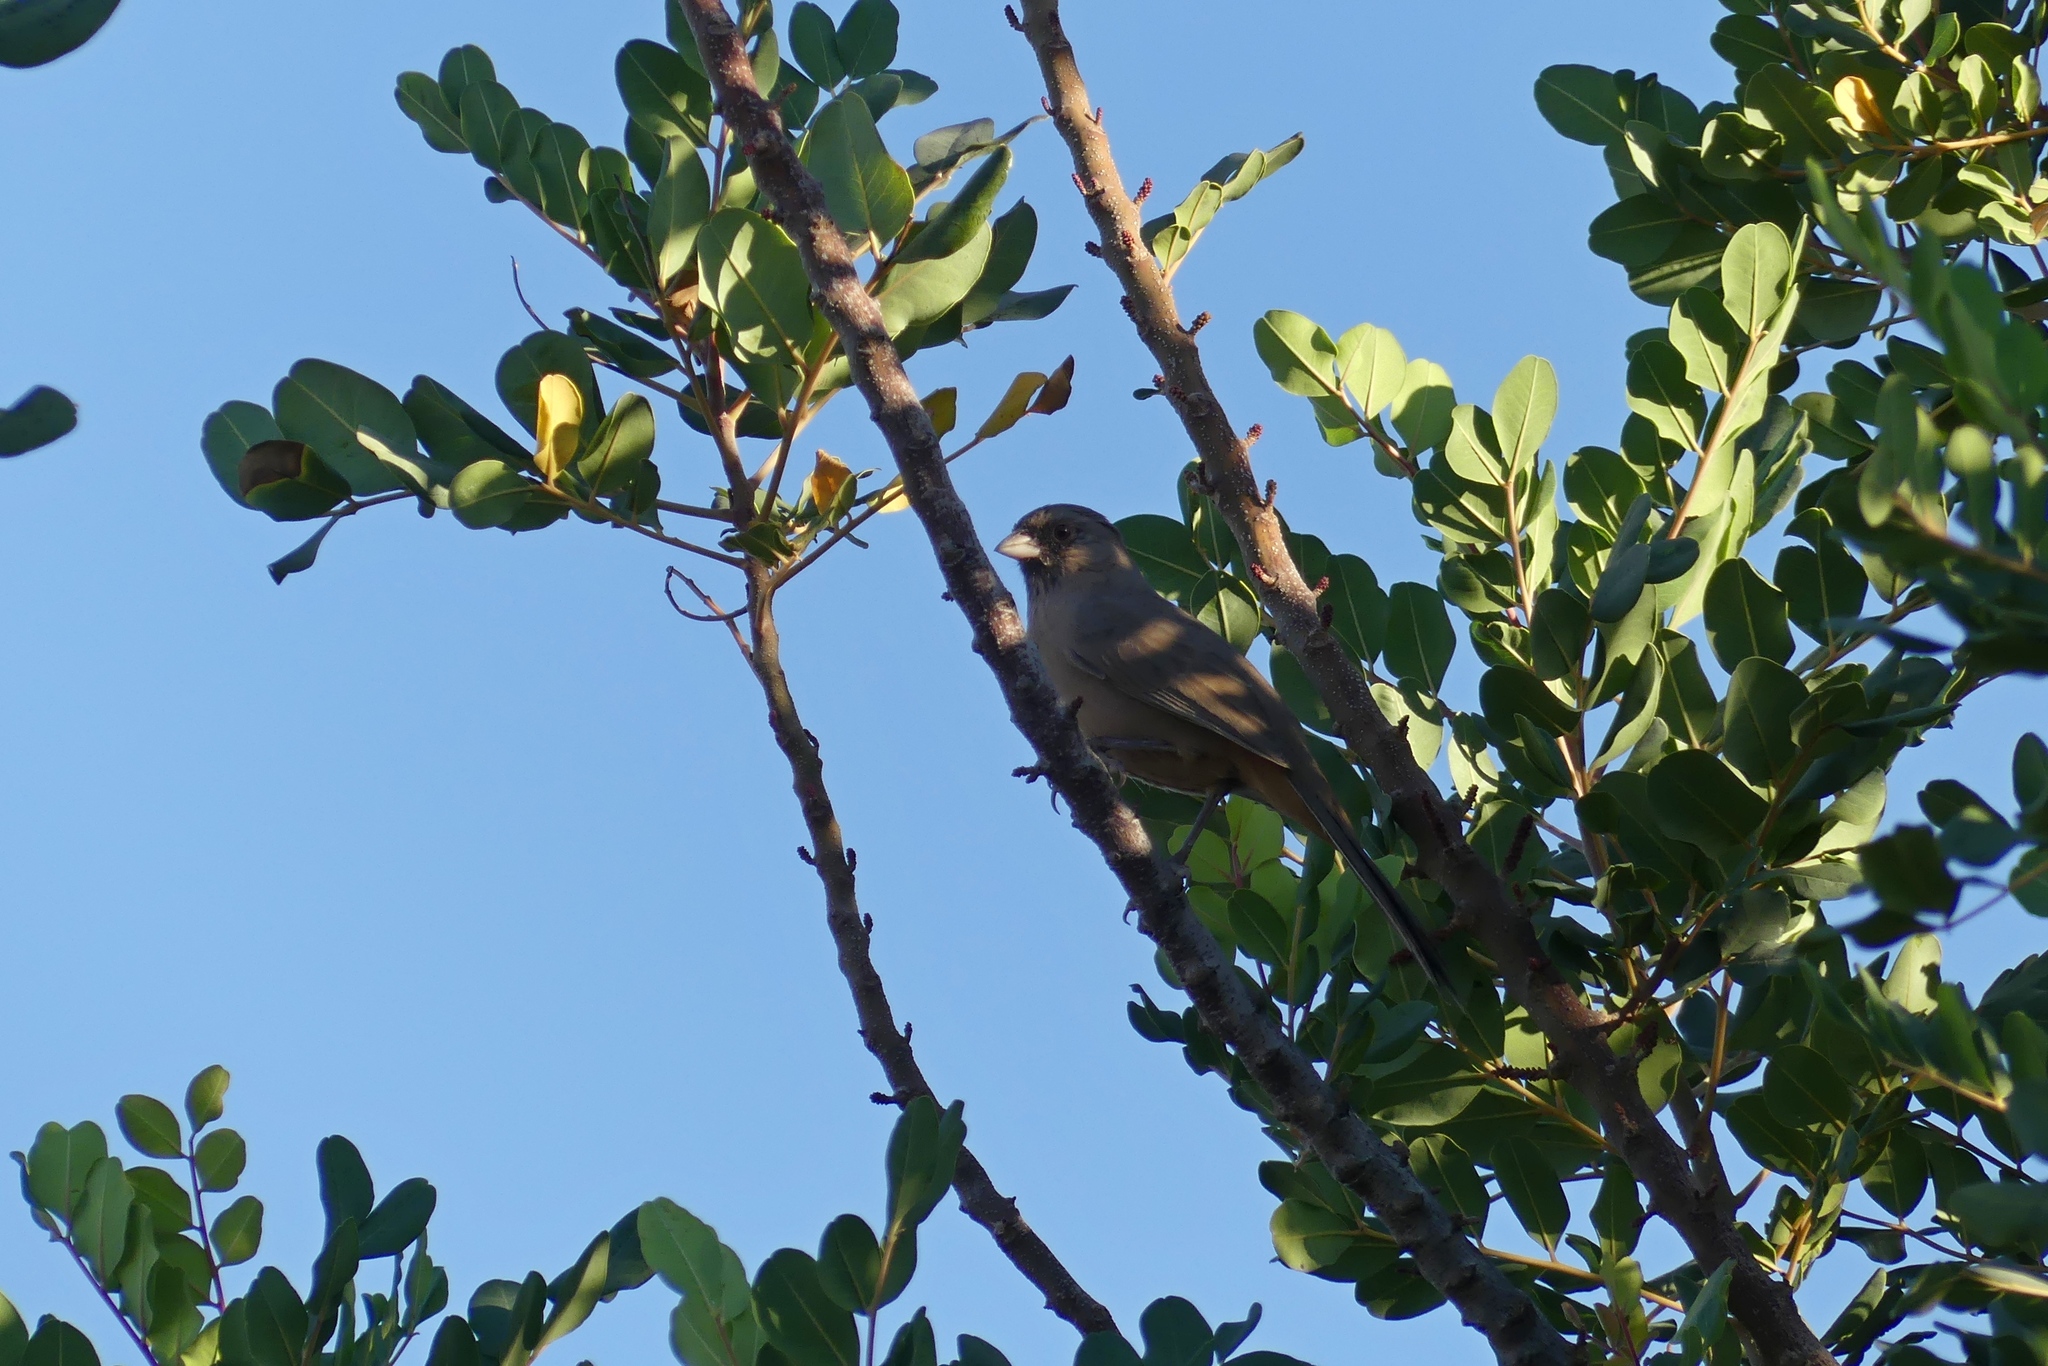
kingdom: Animalia
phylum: Chordata
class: Aves
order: Passeriformes
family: Passerellidae
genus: Melozone
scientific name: Melozone aberti
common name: Abert's towhee
